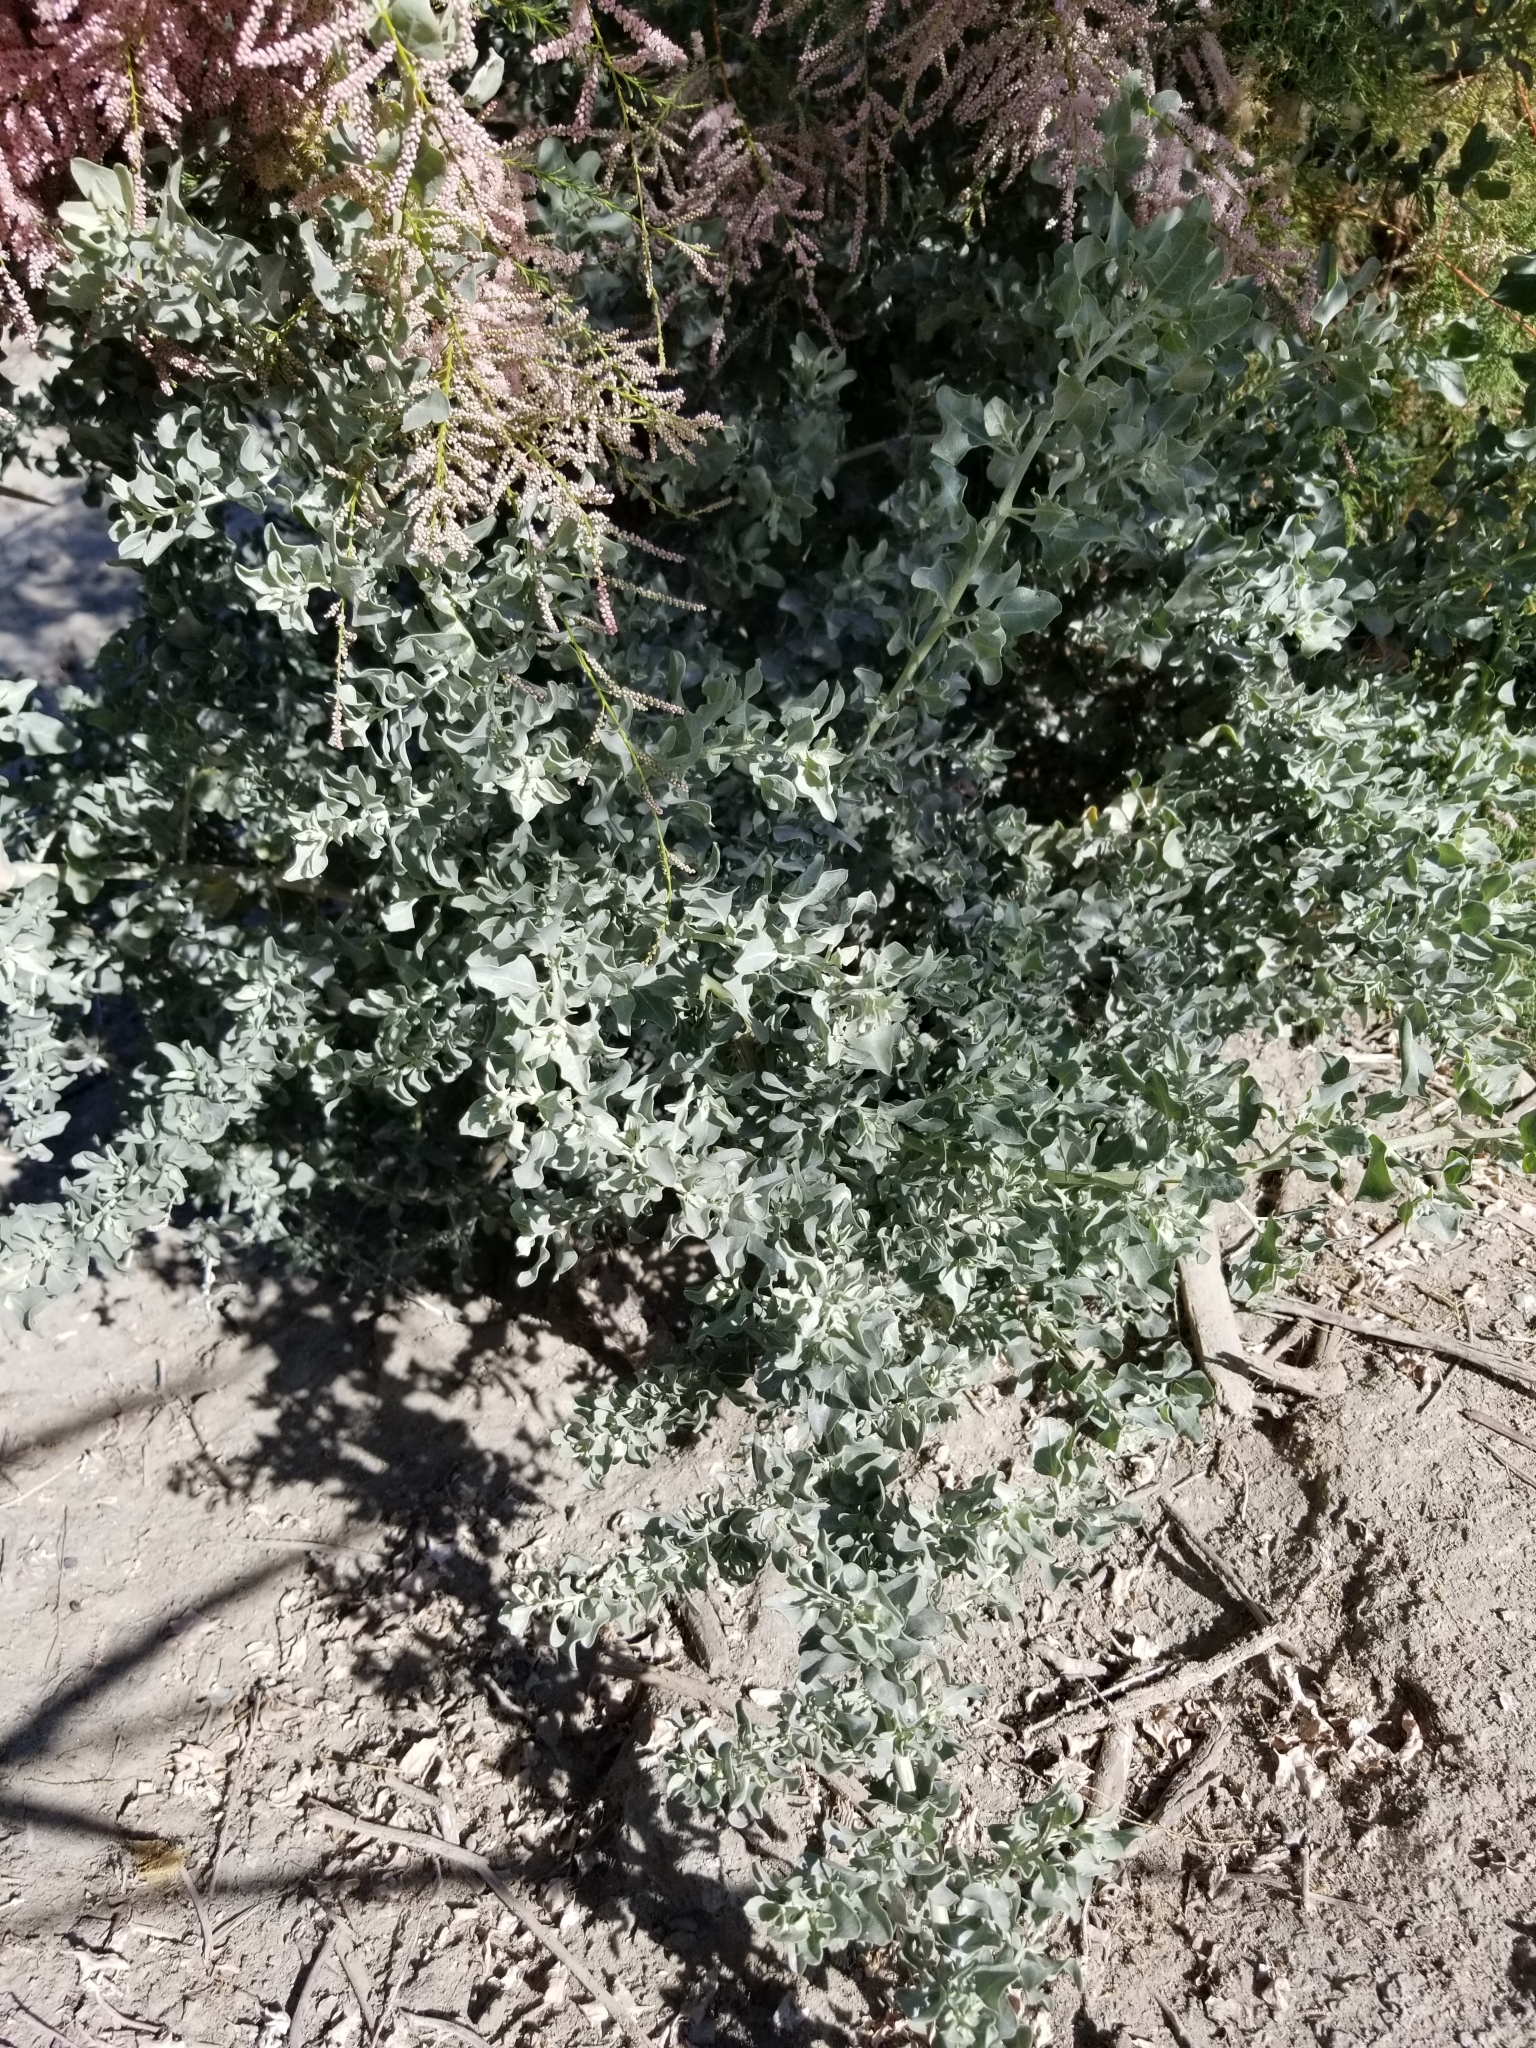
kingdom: Plantae
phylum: Tracheophyta
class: Magnoliopsida
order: Caryophyllales
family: Amaranthaceae
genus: Atriplex
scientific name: Atriplex lentiformis
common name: Big saltbush
